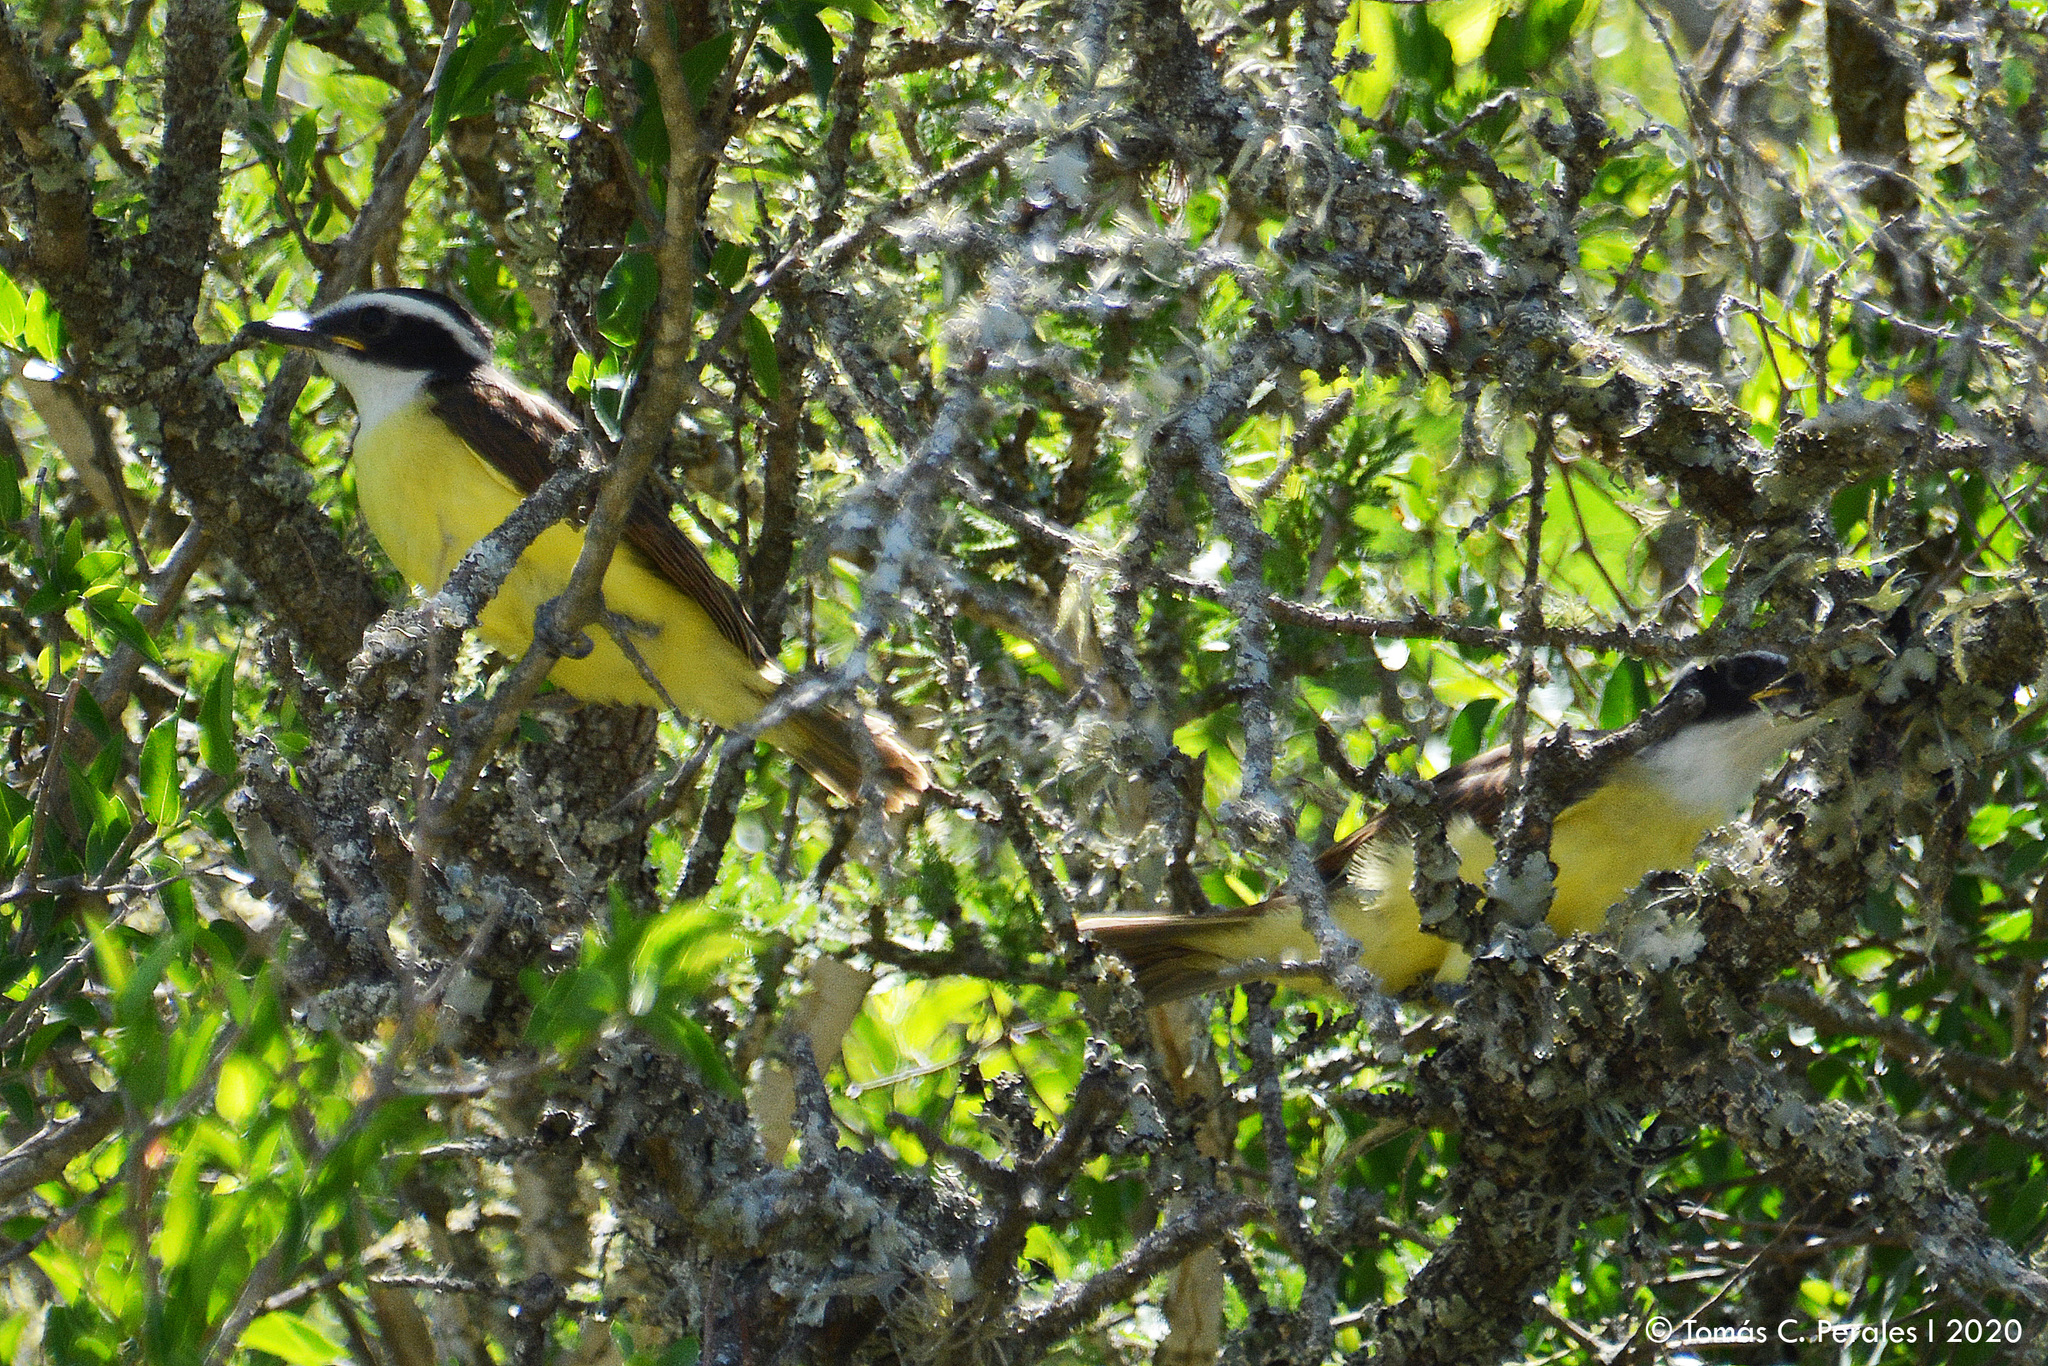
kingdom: Animalia
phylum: Chordata
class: Aves
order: Passeriformes
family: Tyrannidae
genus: Pitangus
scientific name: Pitangus sulphuratus
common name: Great kiskadee
